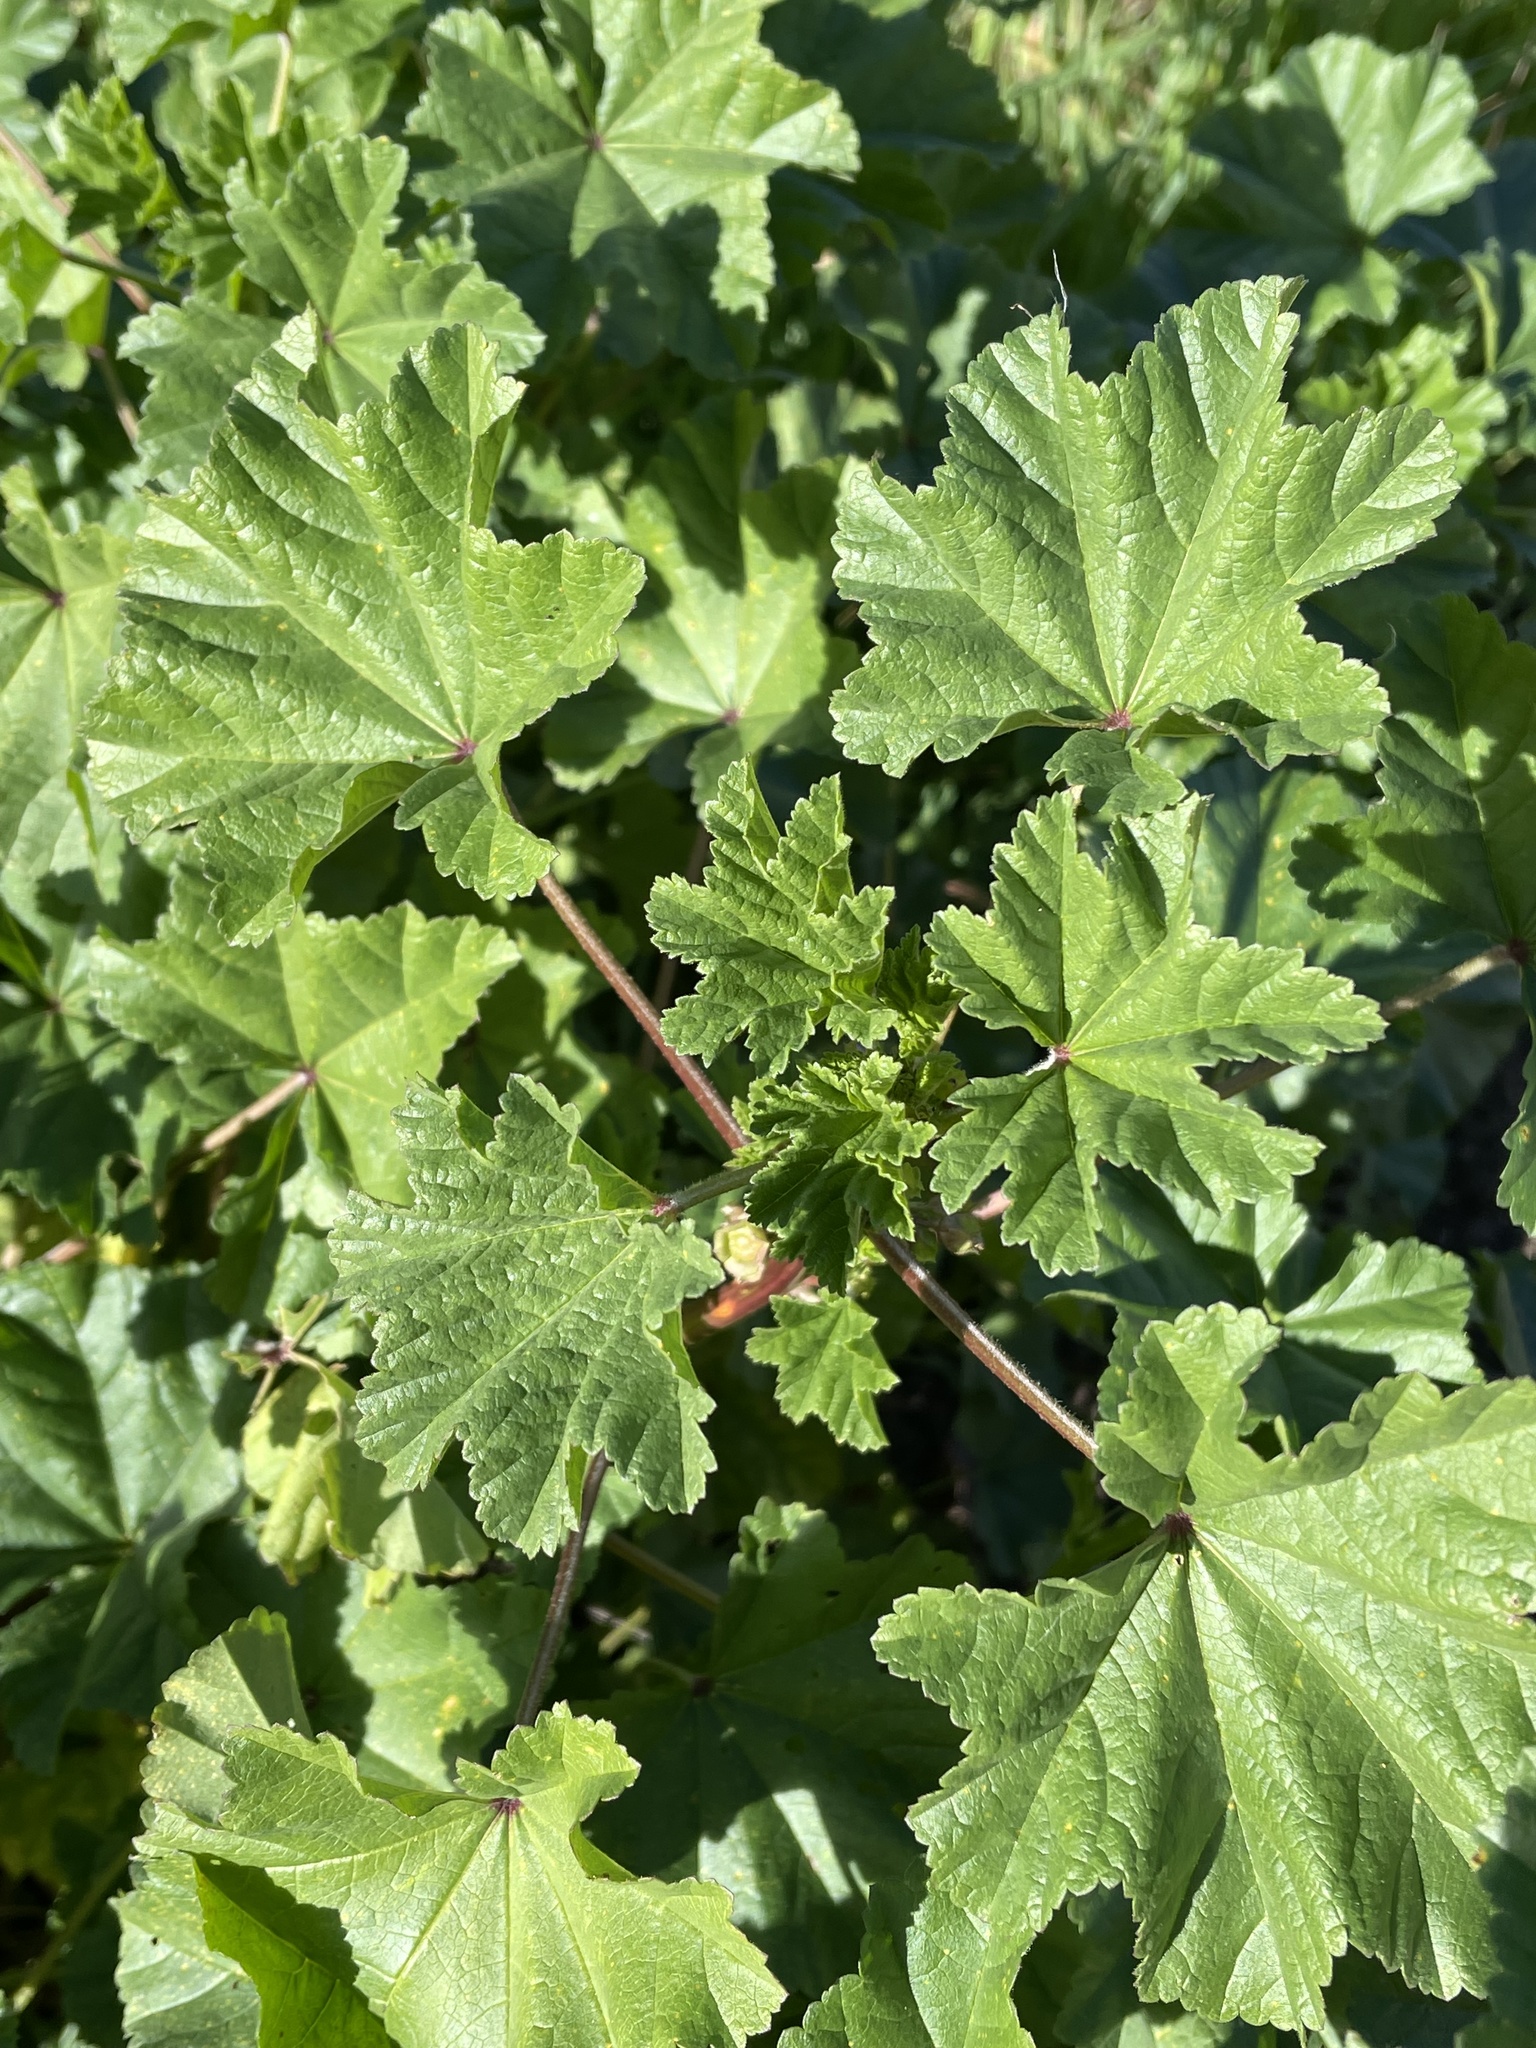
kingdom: Plantae
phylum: Tracheophyta
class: Magnoliopsida
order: Malvales
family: Malvaceae
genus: Malva
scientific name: Malva parviflora
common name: Least mallow
